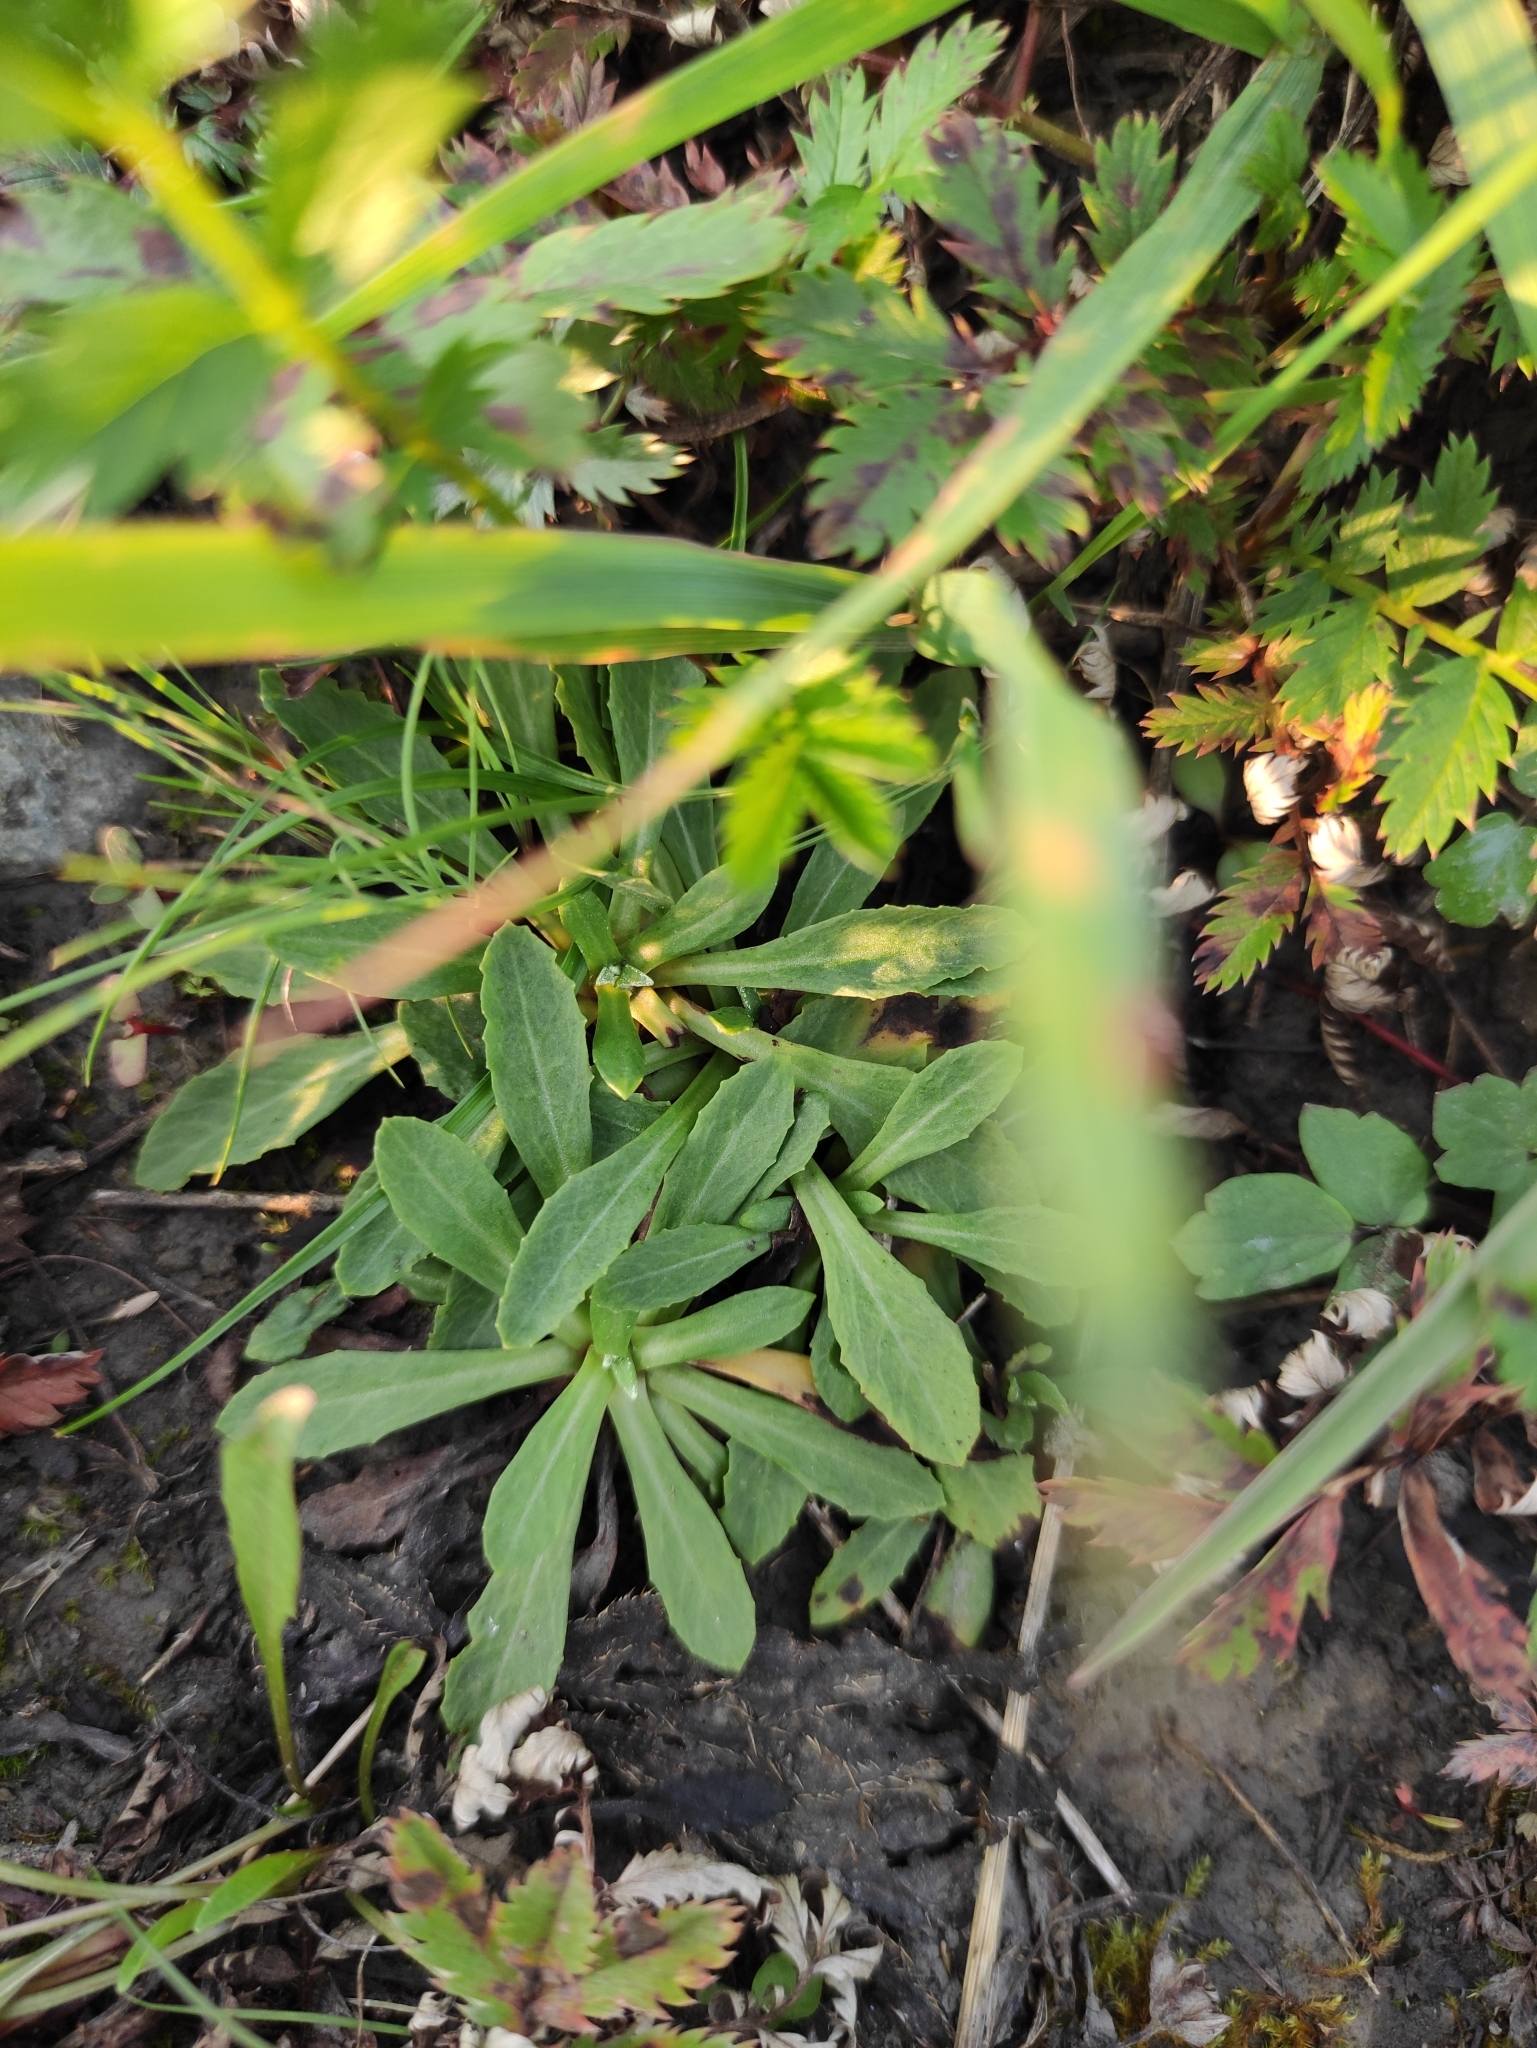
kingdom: Plantae
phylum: Tracheophyta
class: Magnoliopsida
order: Ericales
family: Primulaceae
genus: Primula
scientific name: Primula farinosa
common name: Bird's-eye primrose
